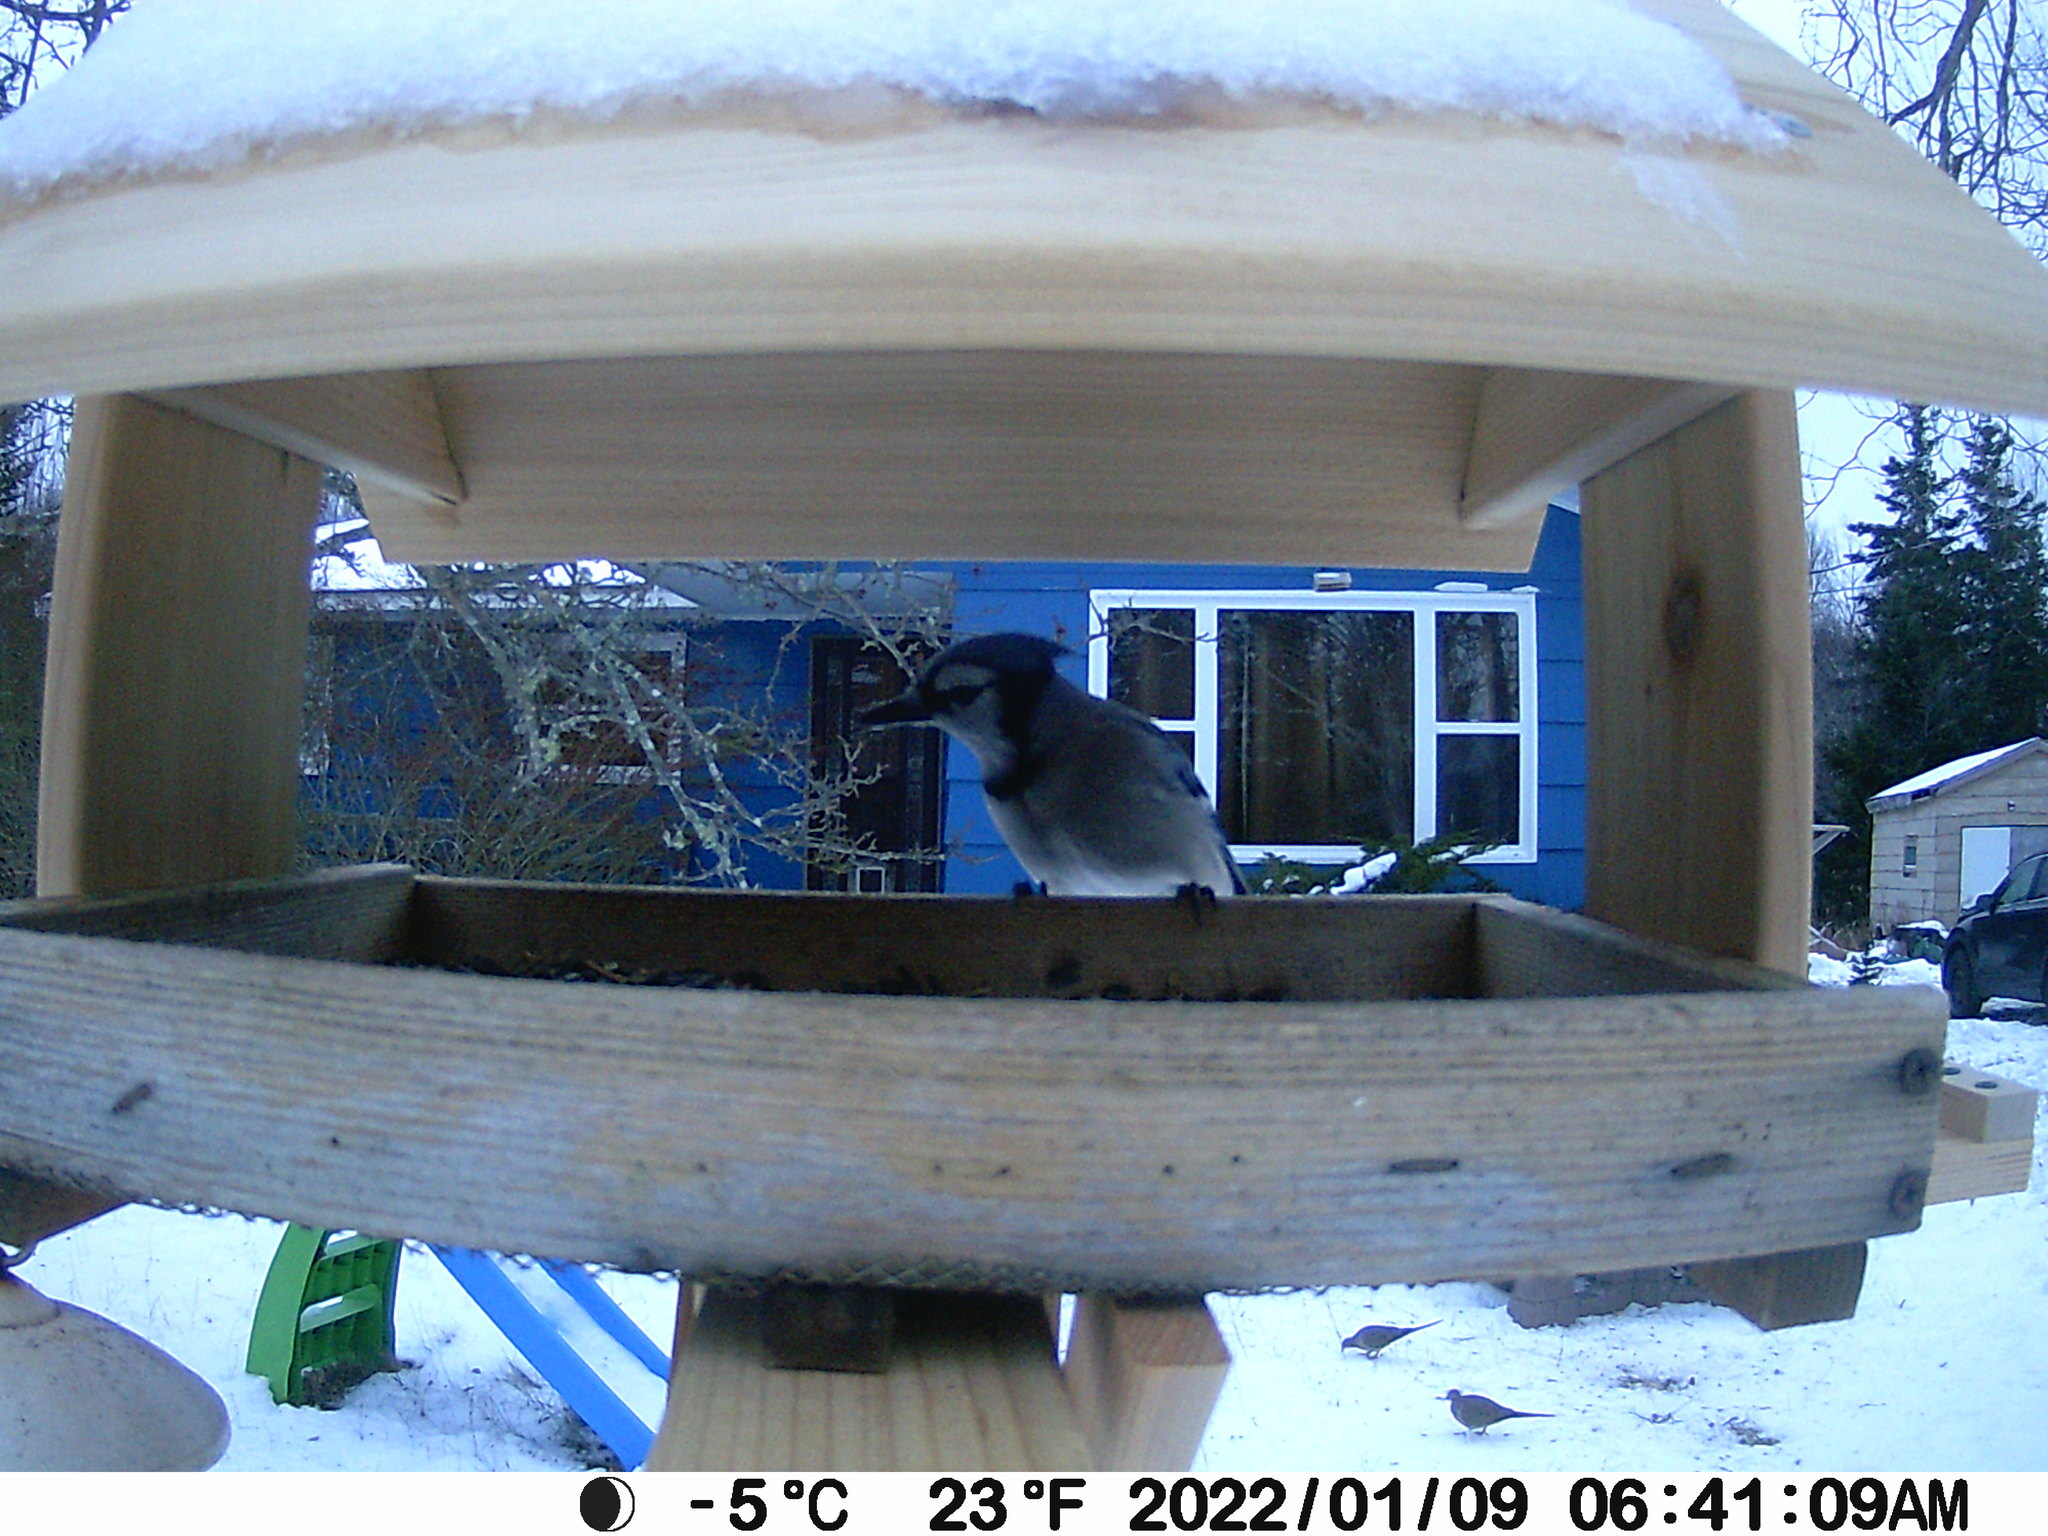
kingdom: Animalia
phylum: Chordata
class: Aves
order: Columbiformes
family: Columbidae
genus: Zenaida
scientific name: Zenaida macroura
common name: Mourning dove
